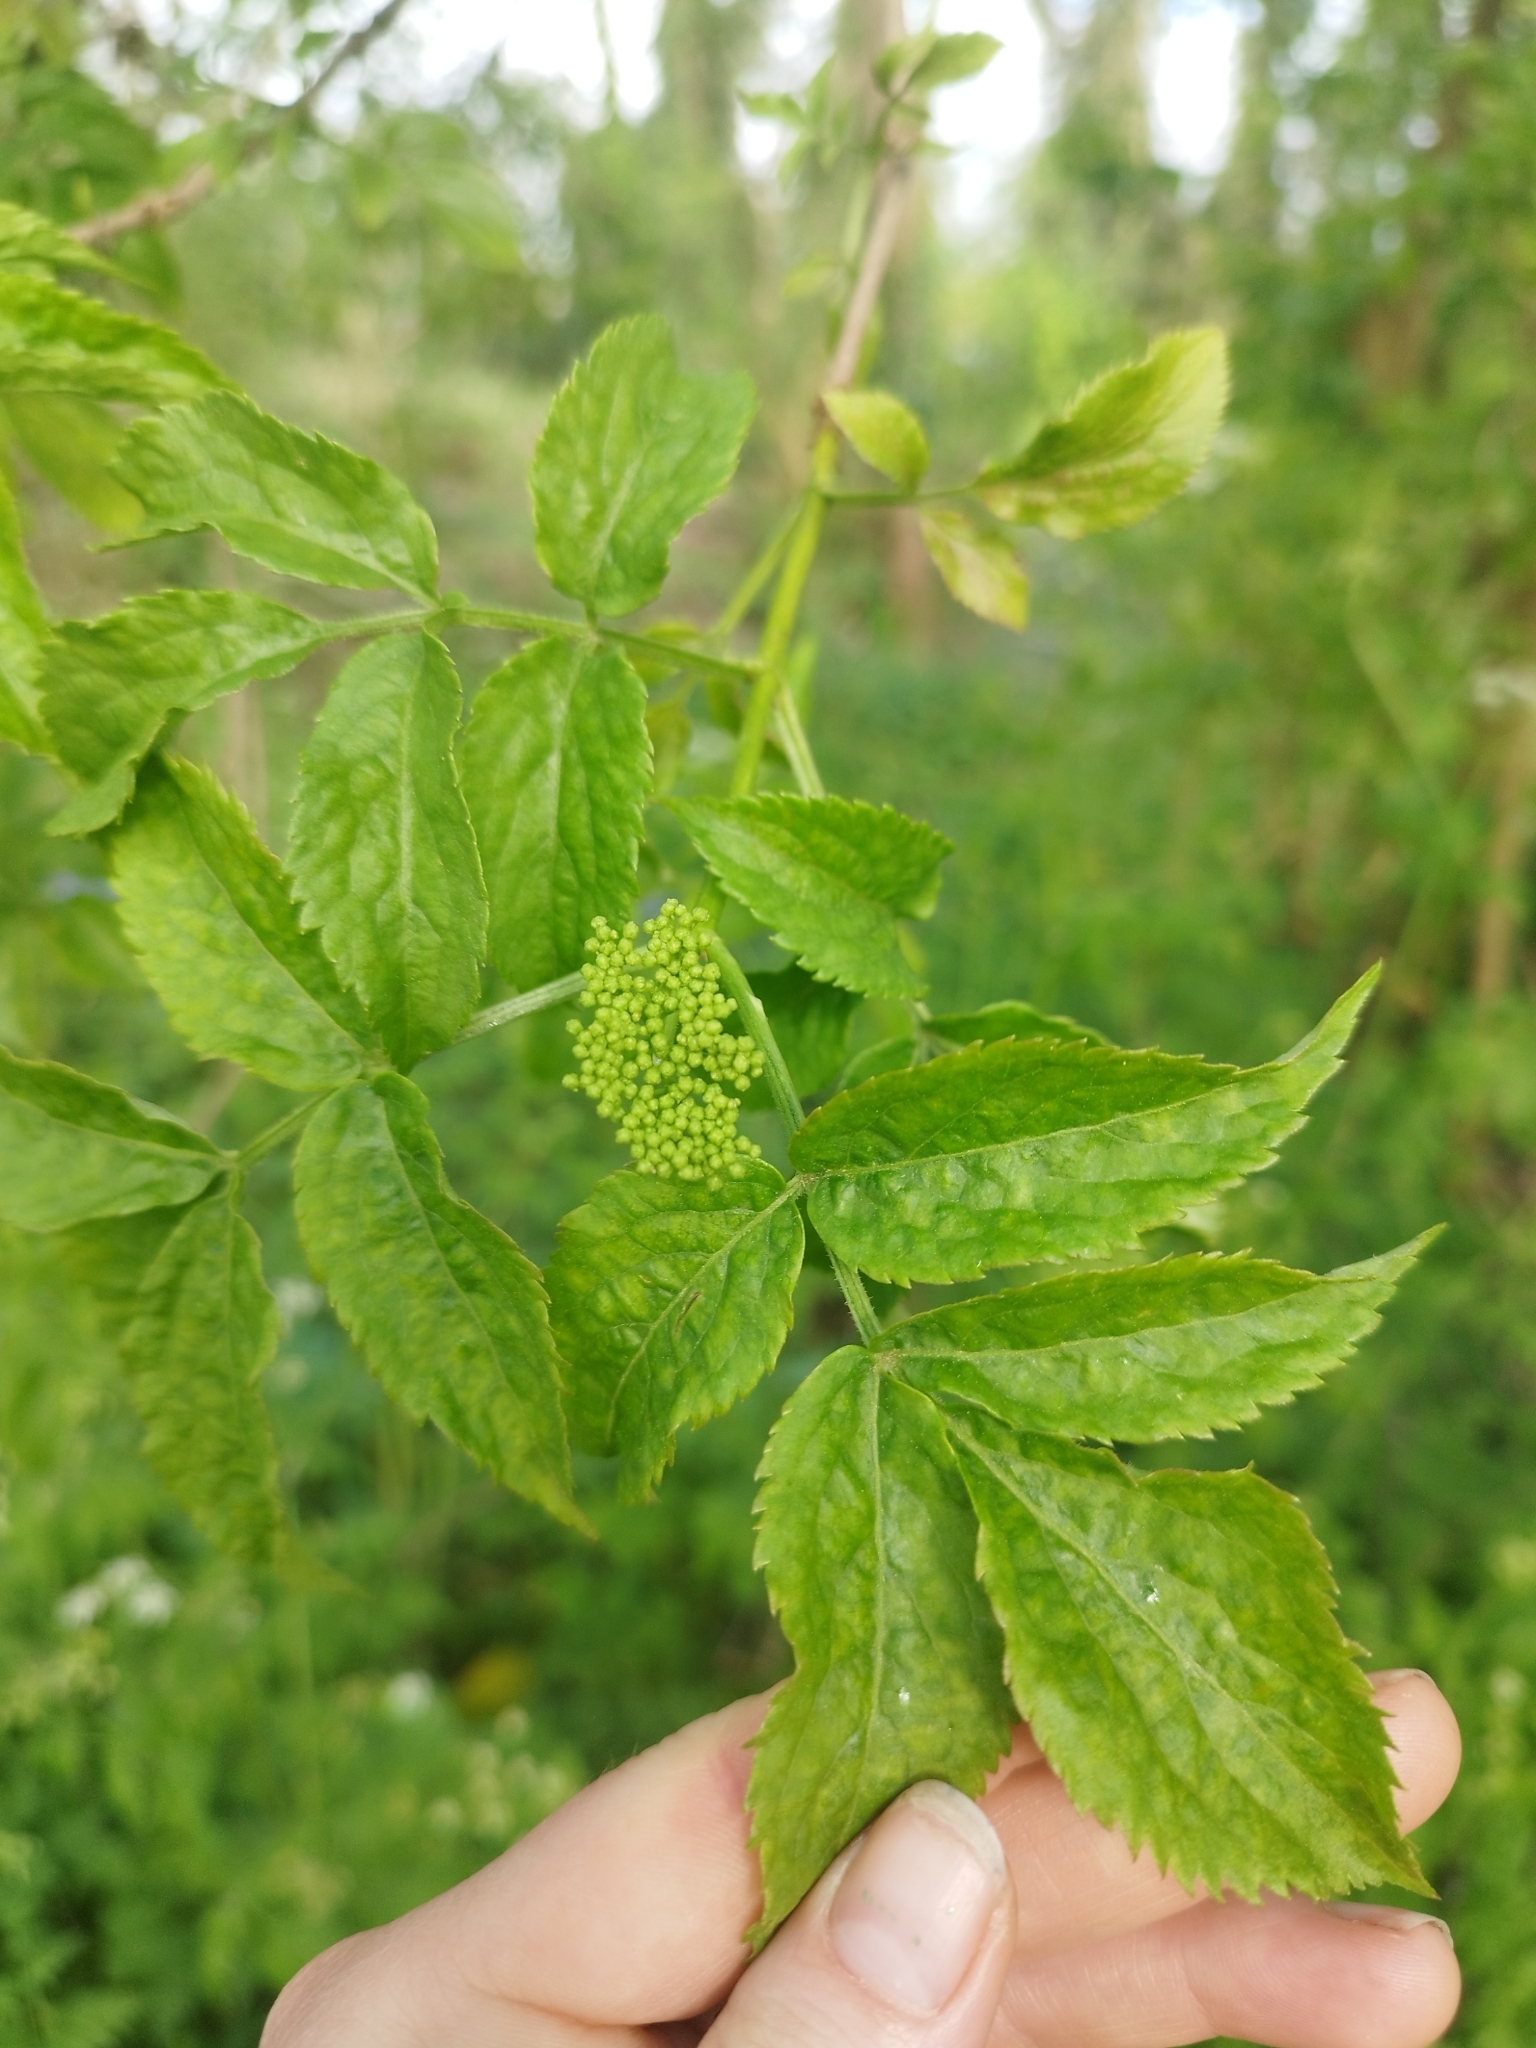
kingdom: Plantae
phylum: Tracheophyta
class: Magnoliopsida
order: Dipsacales
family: Viburnaceae
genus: Sambucus
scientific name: Sambucus nigra
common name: Elder
